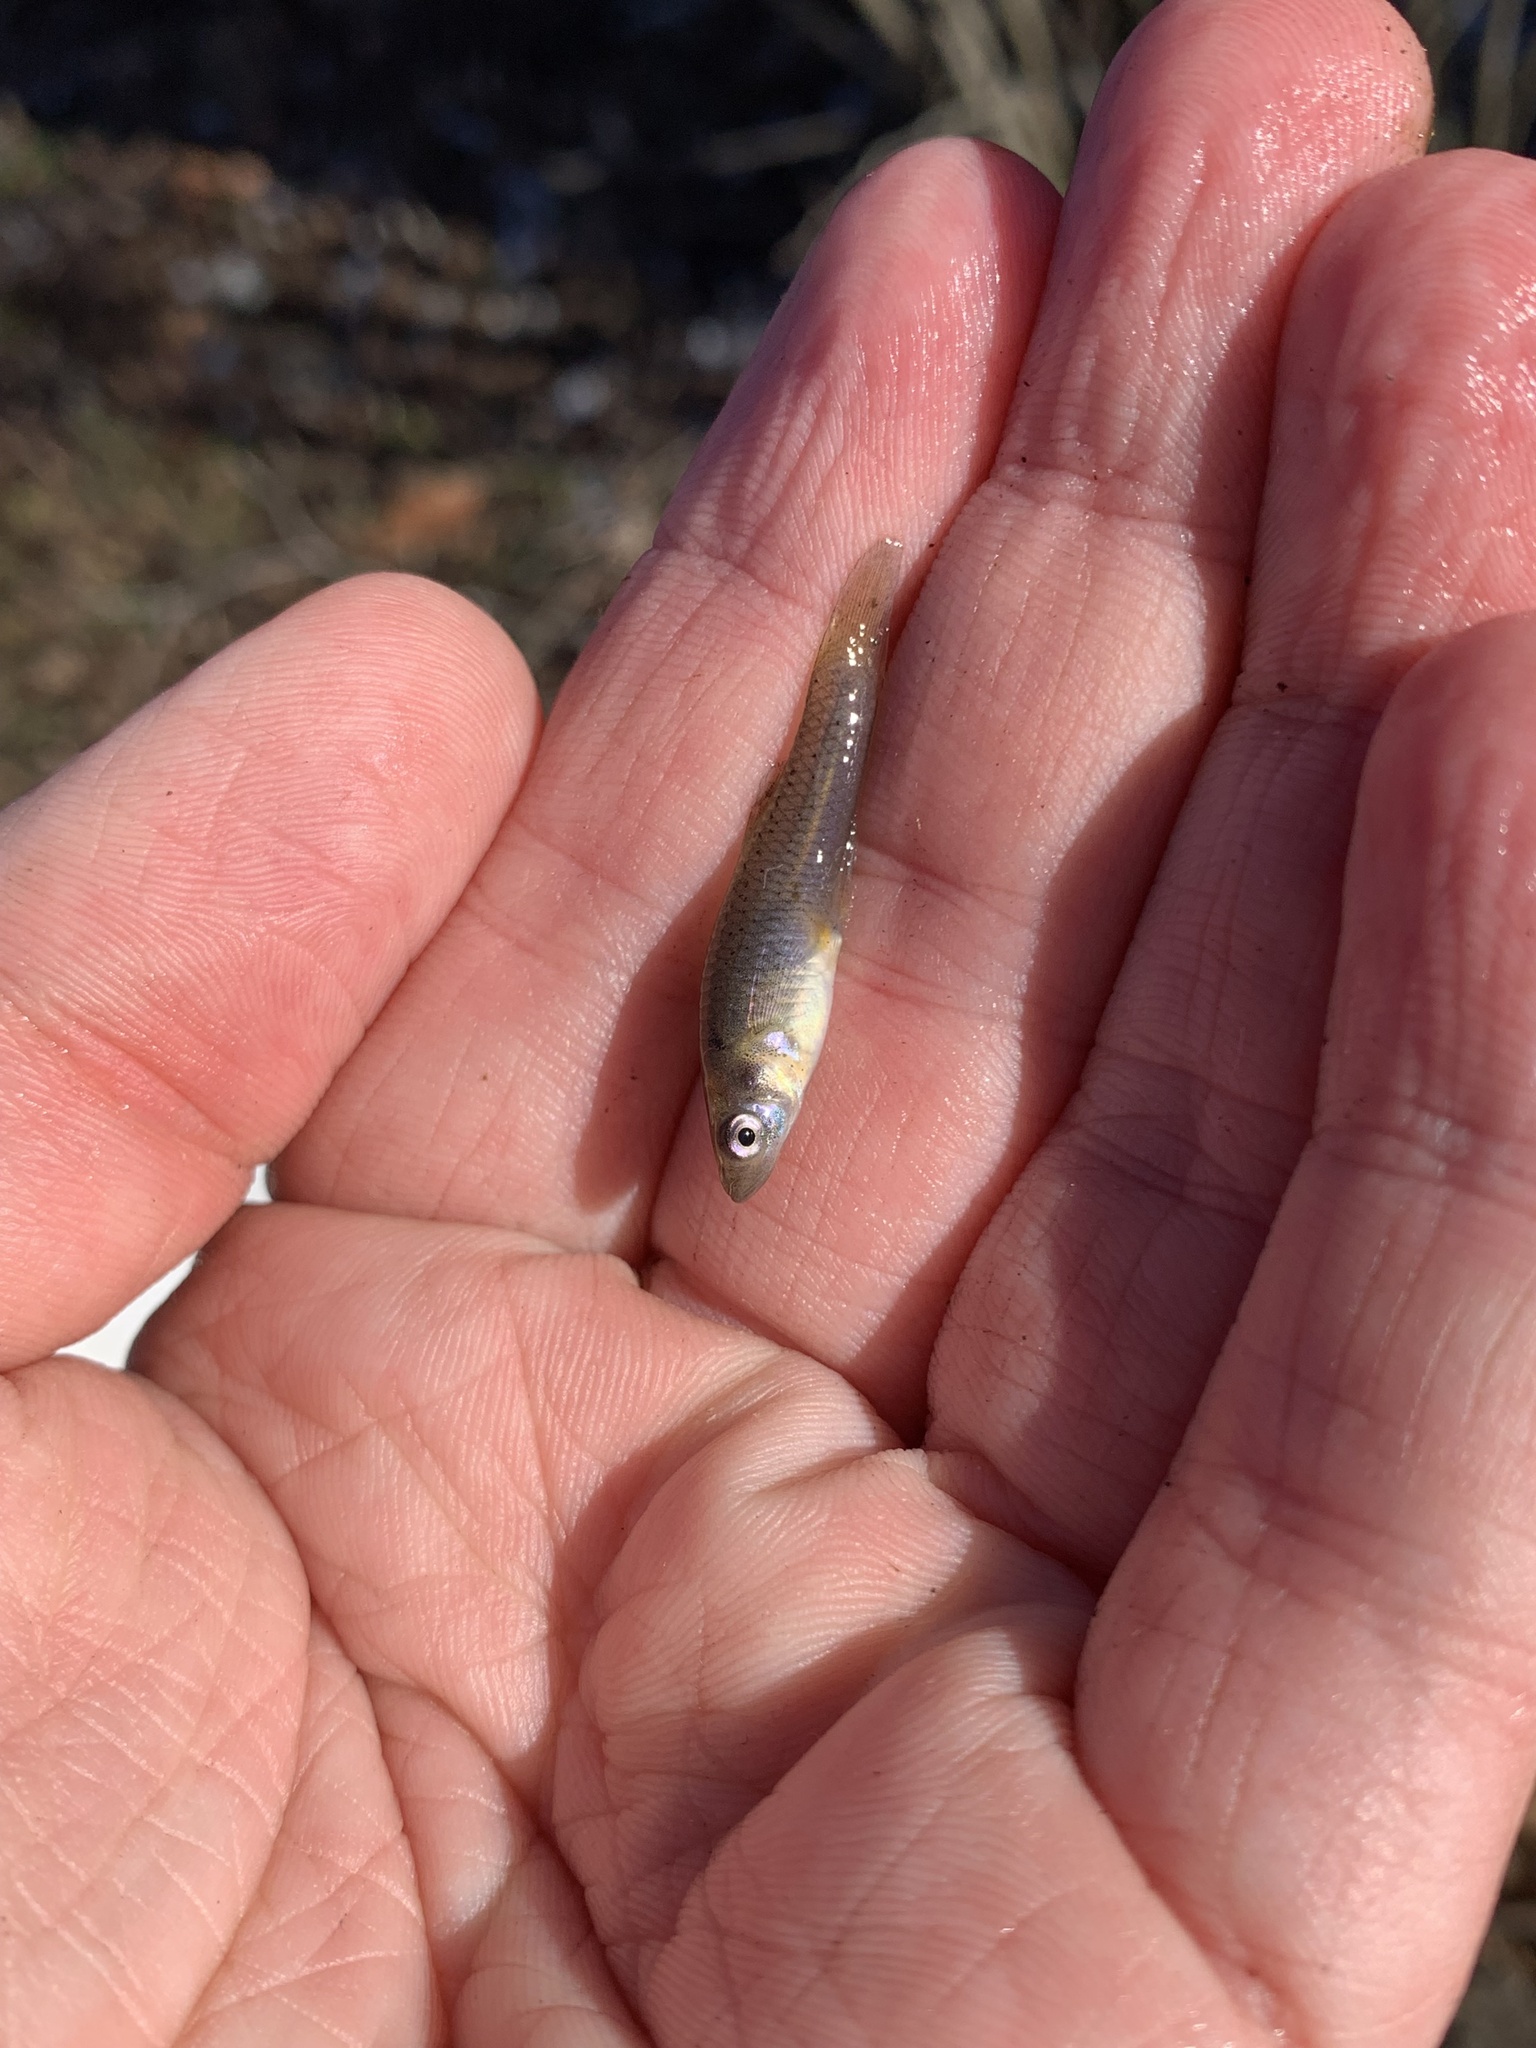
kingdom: Animalia
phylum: Chordata
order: Cyprinodontiformes
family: Poeciliidae
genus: Gambusia
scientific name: Gambusia affinis
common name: Mosquitofish
